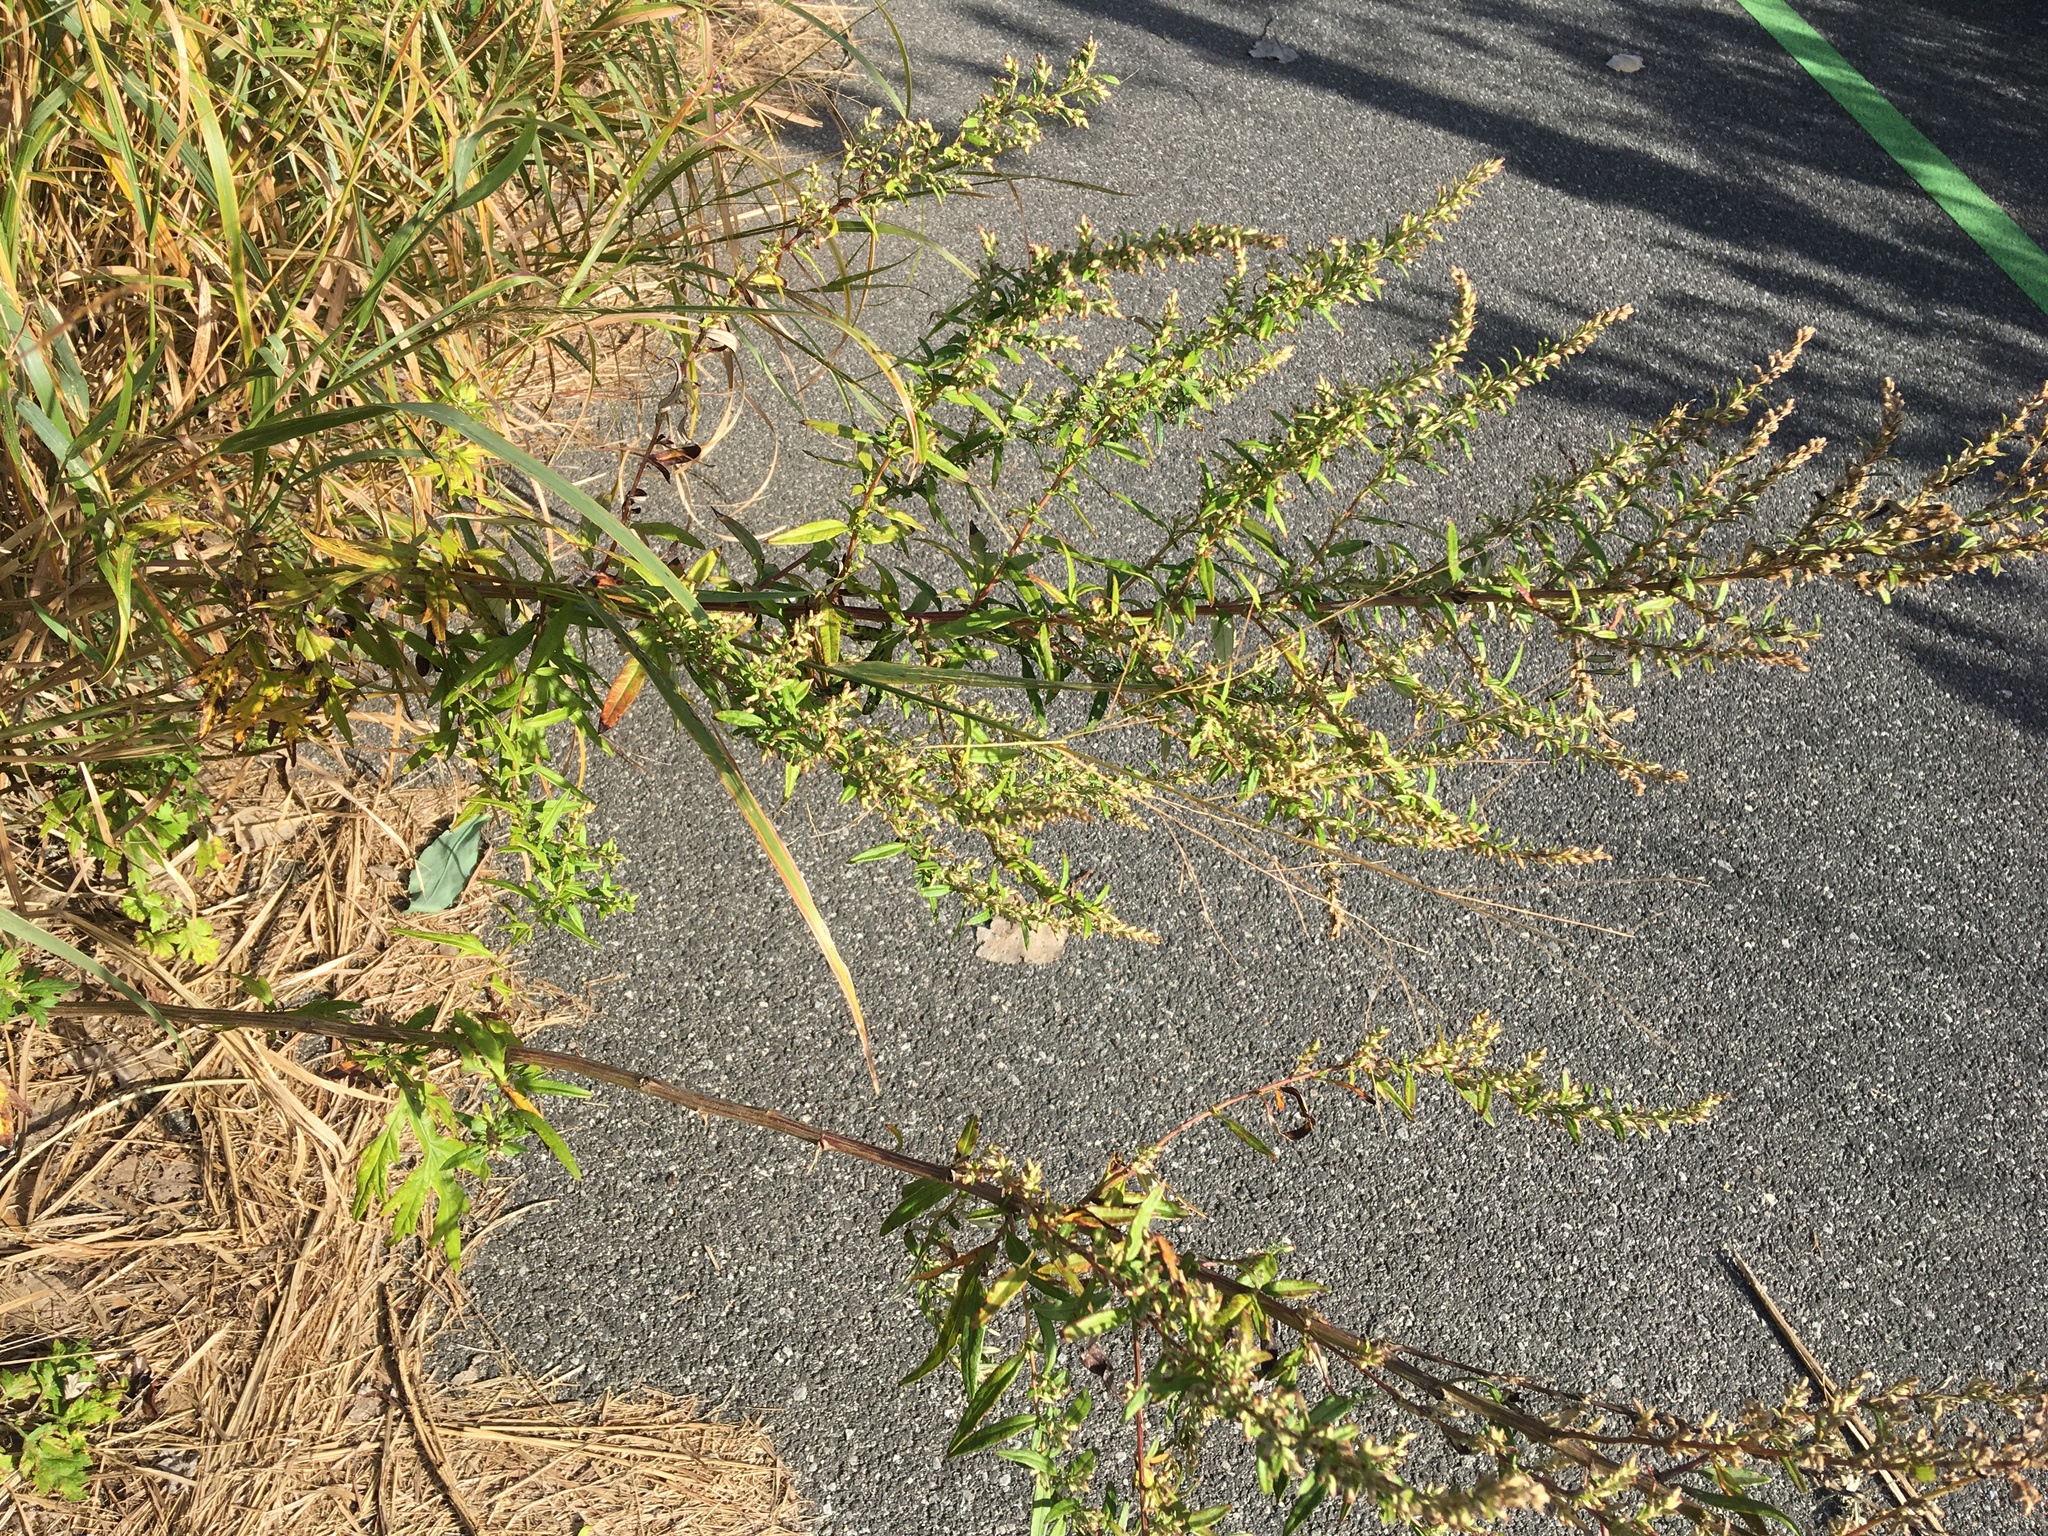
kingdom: Plantae
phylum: Tracheophyta
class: Magnoliopsida
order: Asterales
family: Asteraceae
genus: Artemisia
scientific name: Artemisia vulgaris
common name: Mugwort
